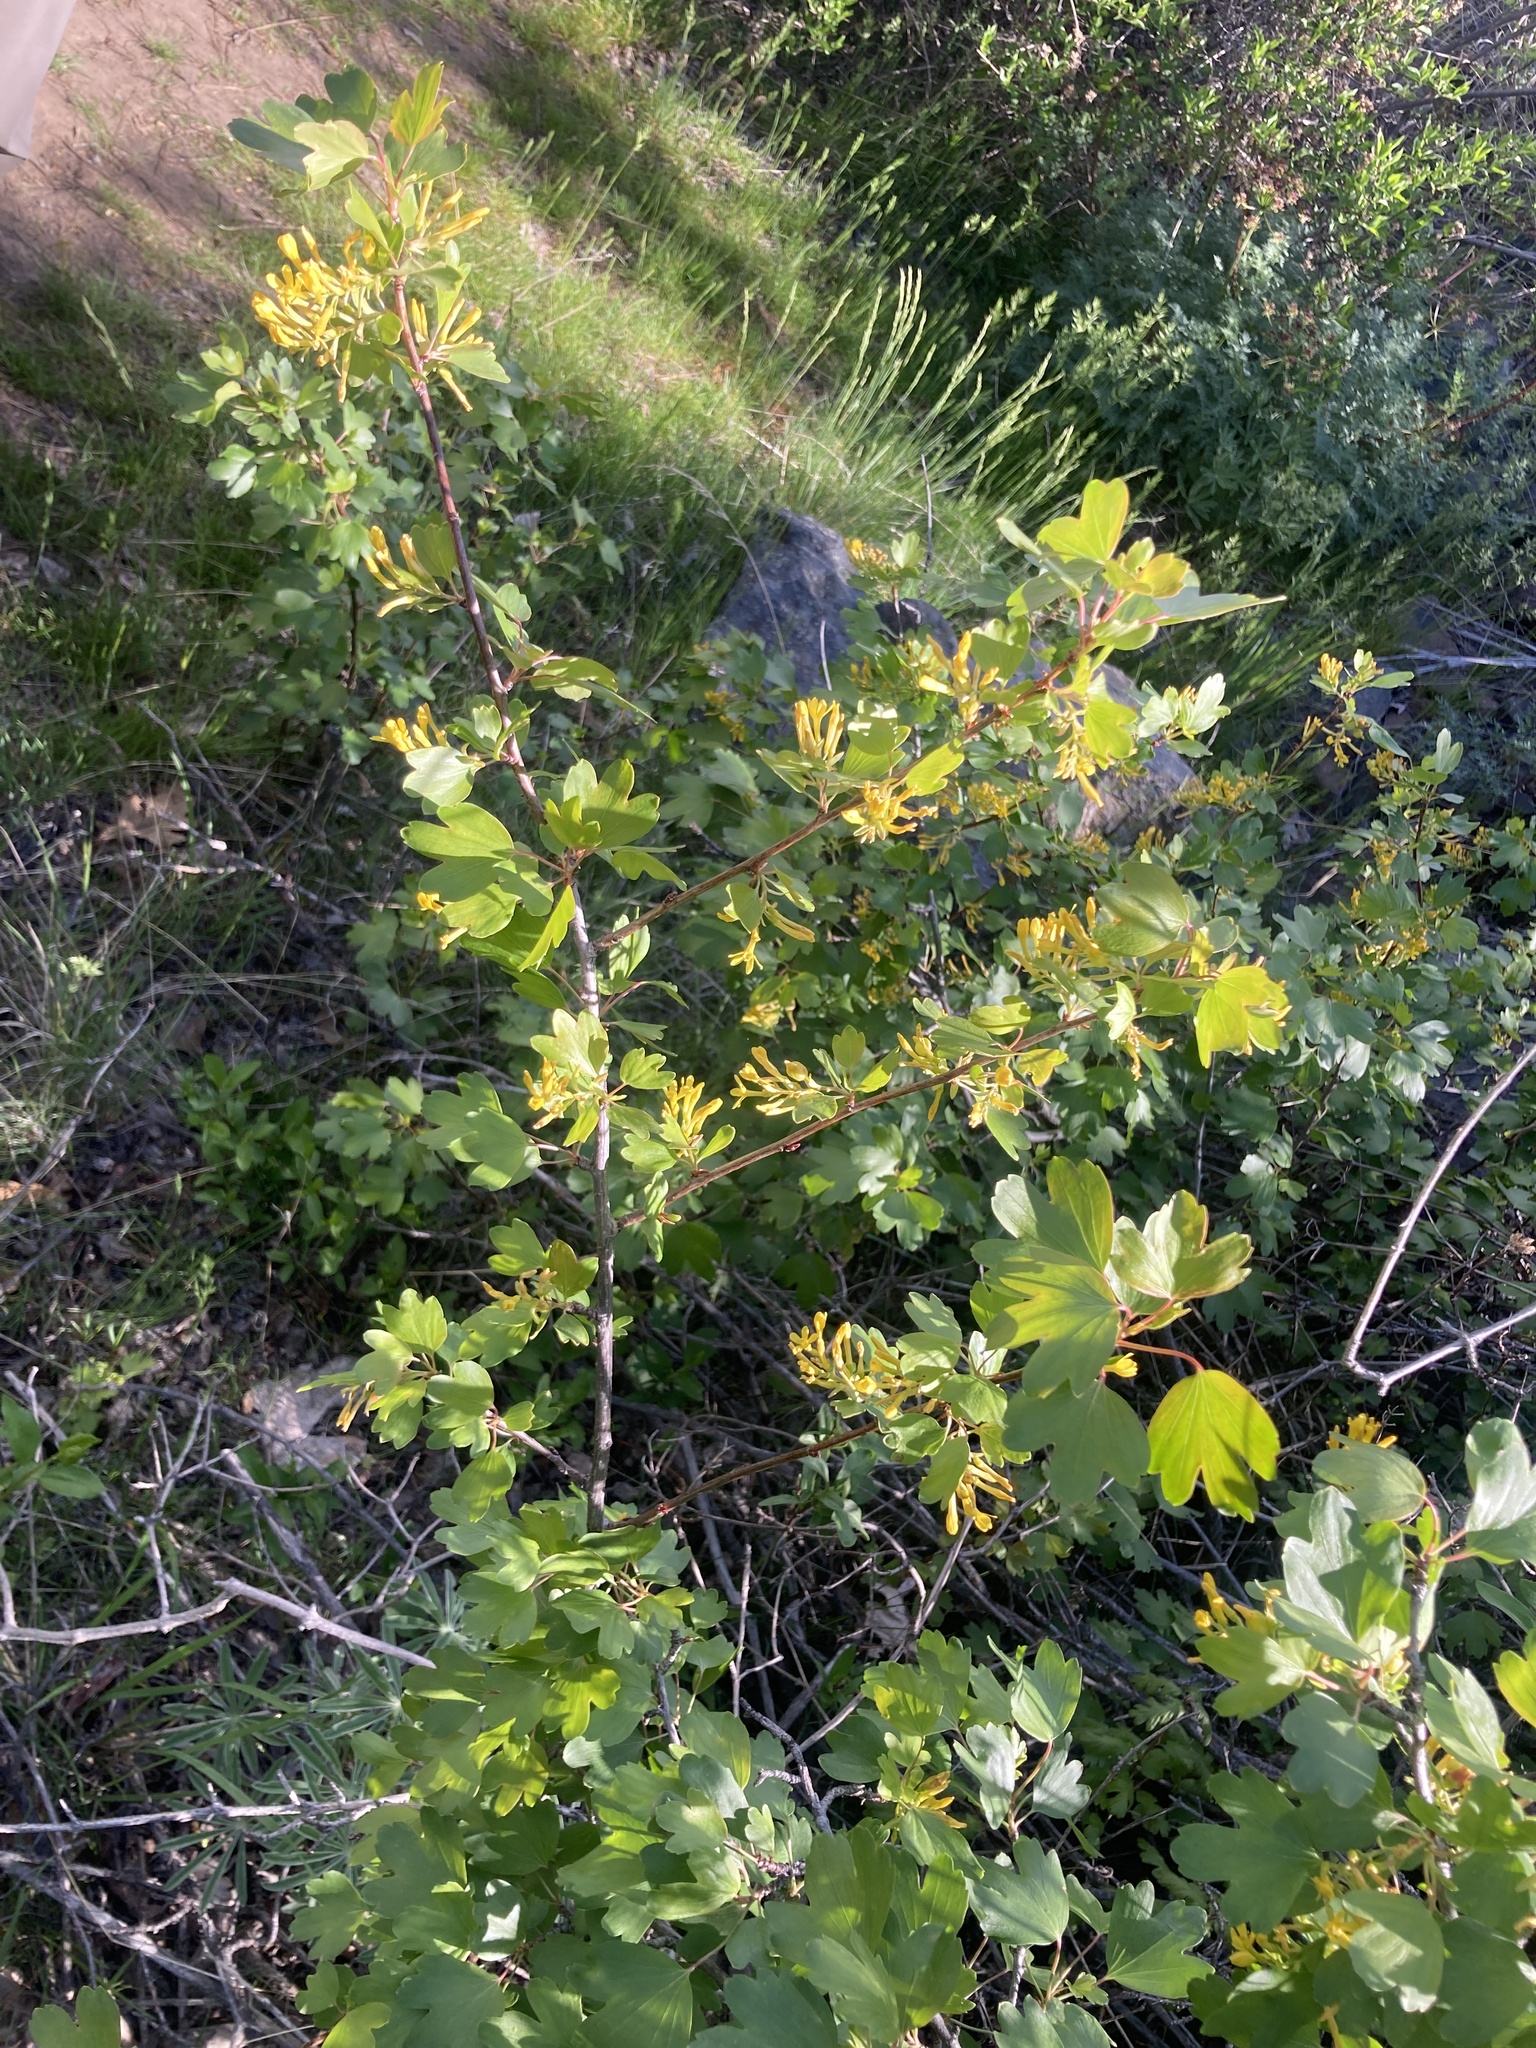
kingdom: Plantae
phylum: Tracheophyta
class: Magnoliopsida
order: Saxifragales
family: Grossulariaceae
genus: Ribes
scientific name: Ribes aureum
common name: Golden currant
